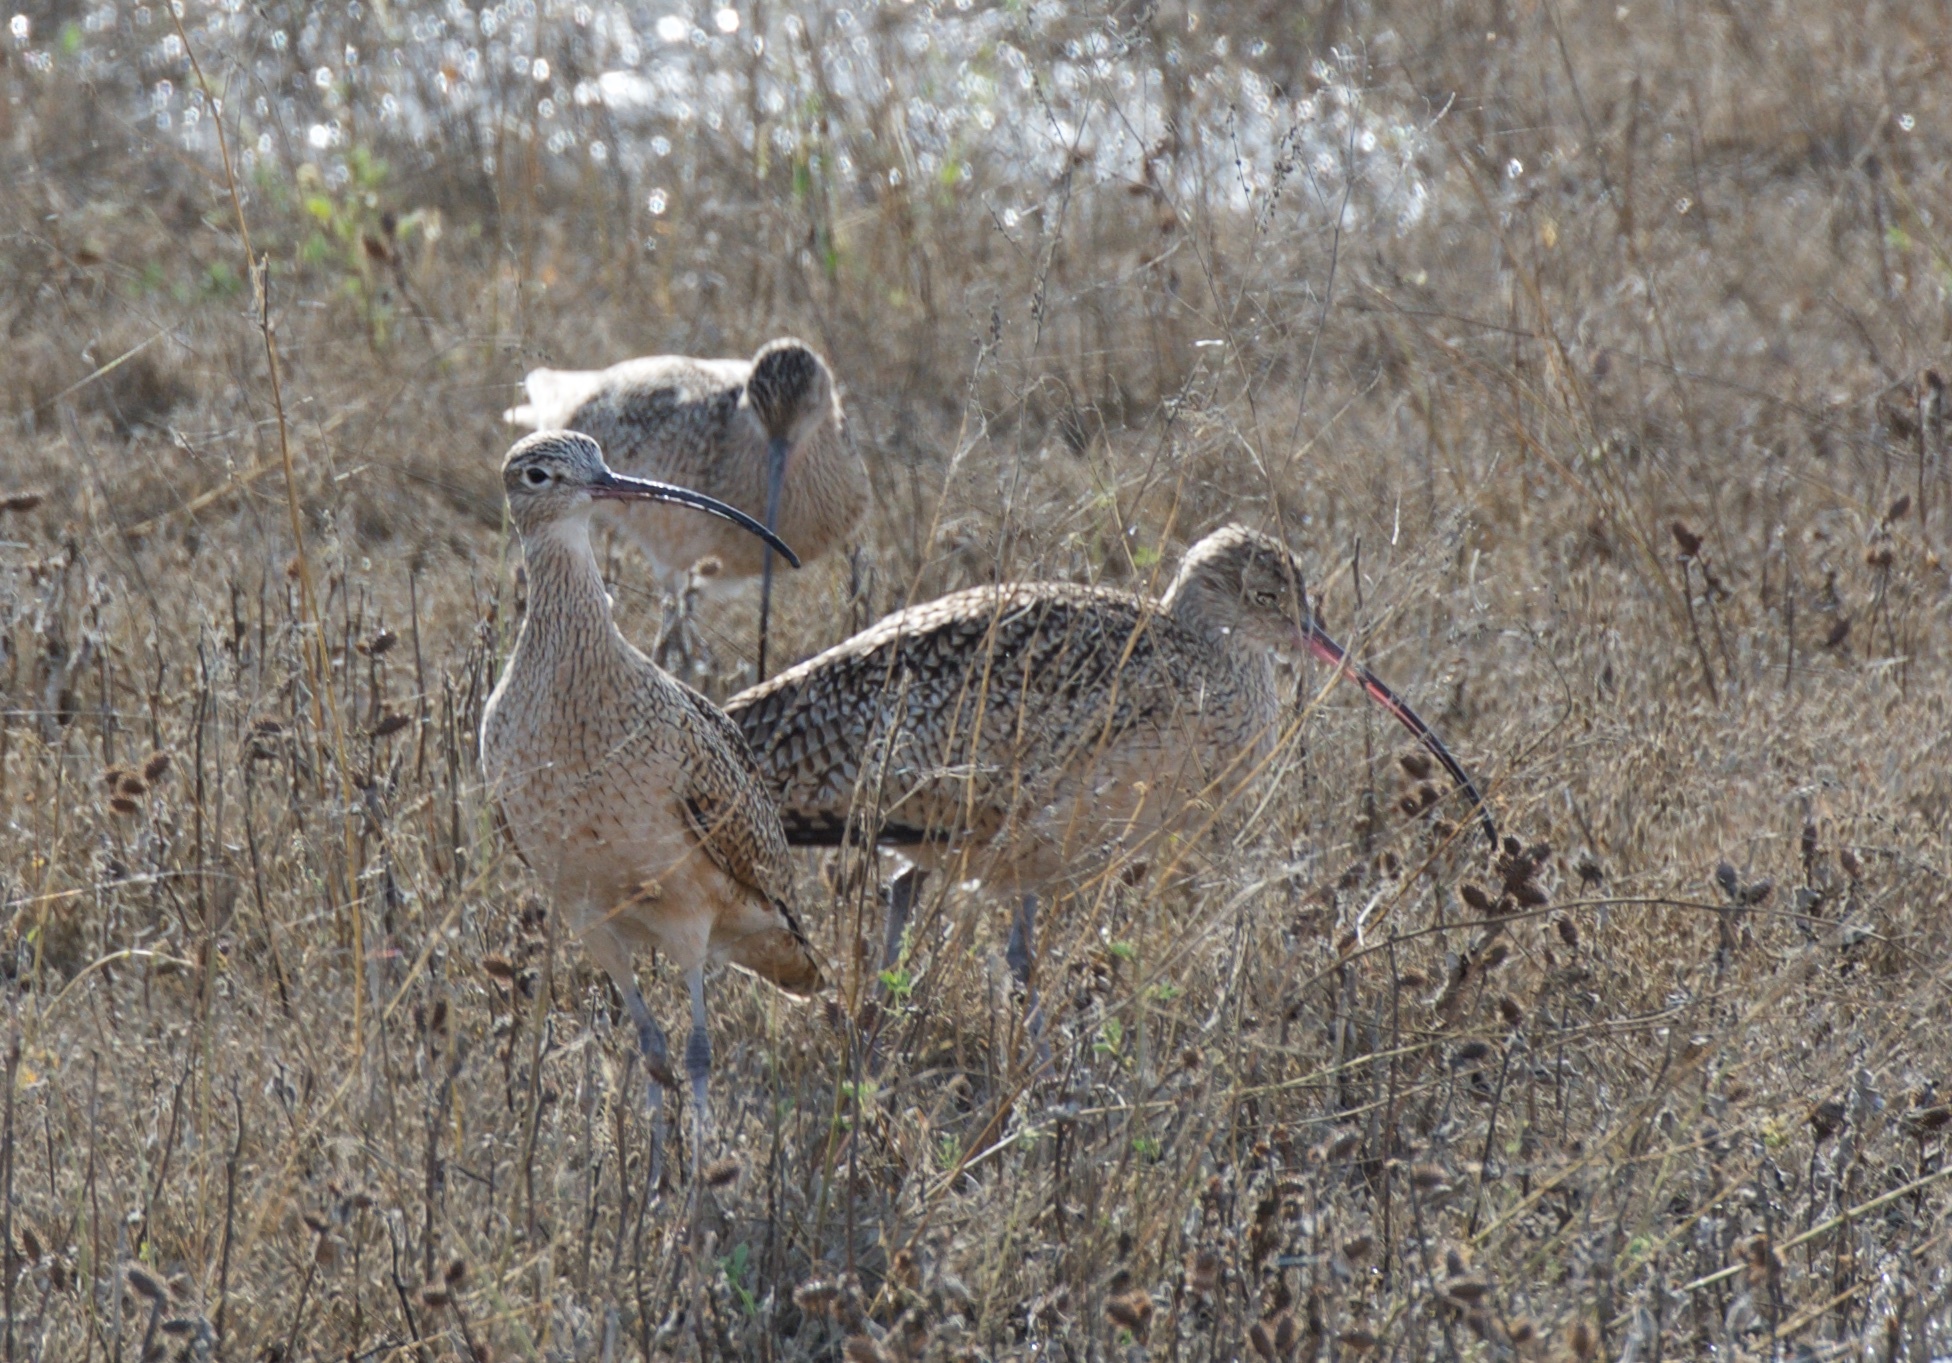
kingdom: Animalia
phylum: Chordata
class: Aves
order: Charadriiformes
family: Scolopacidae
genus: Numenius
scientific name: Numenius americanus
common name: Long-billed curlew
